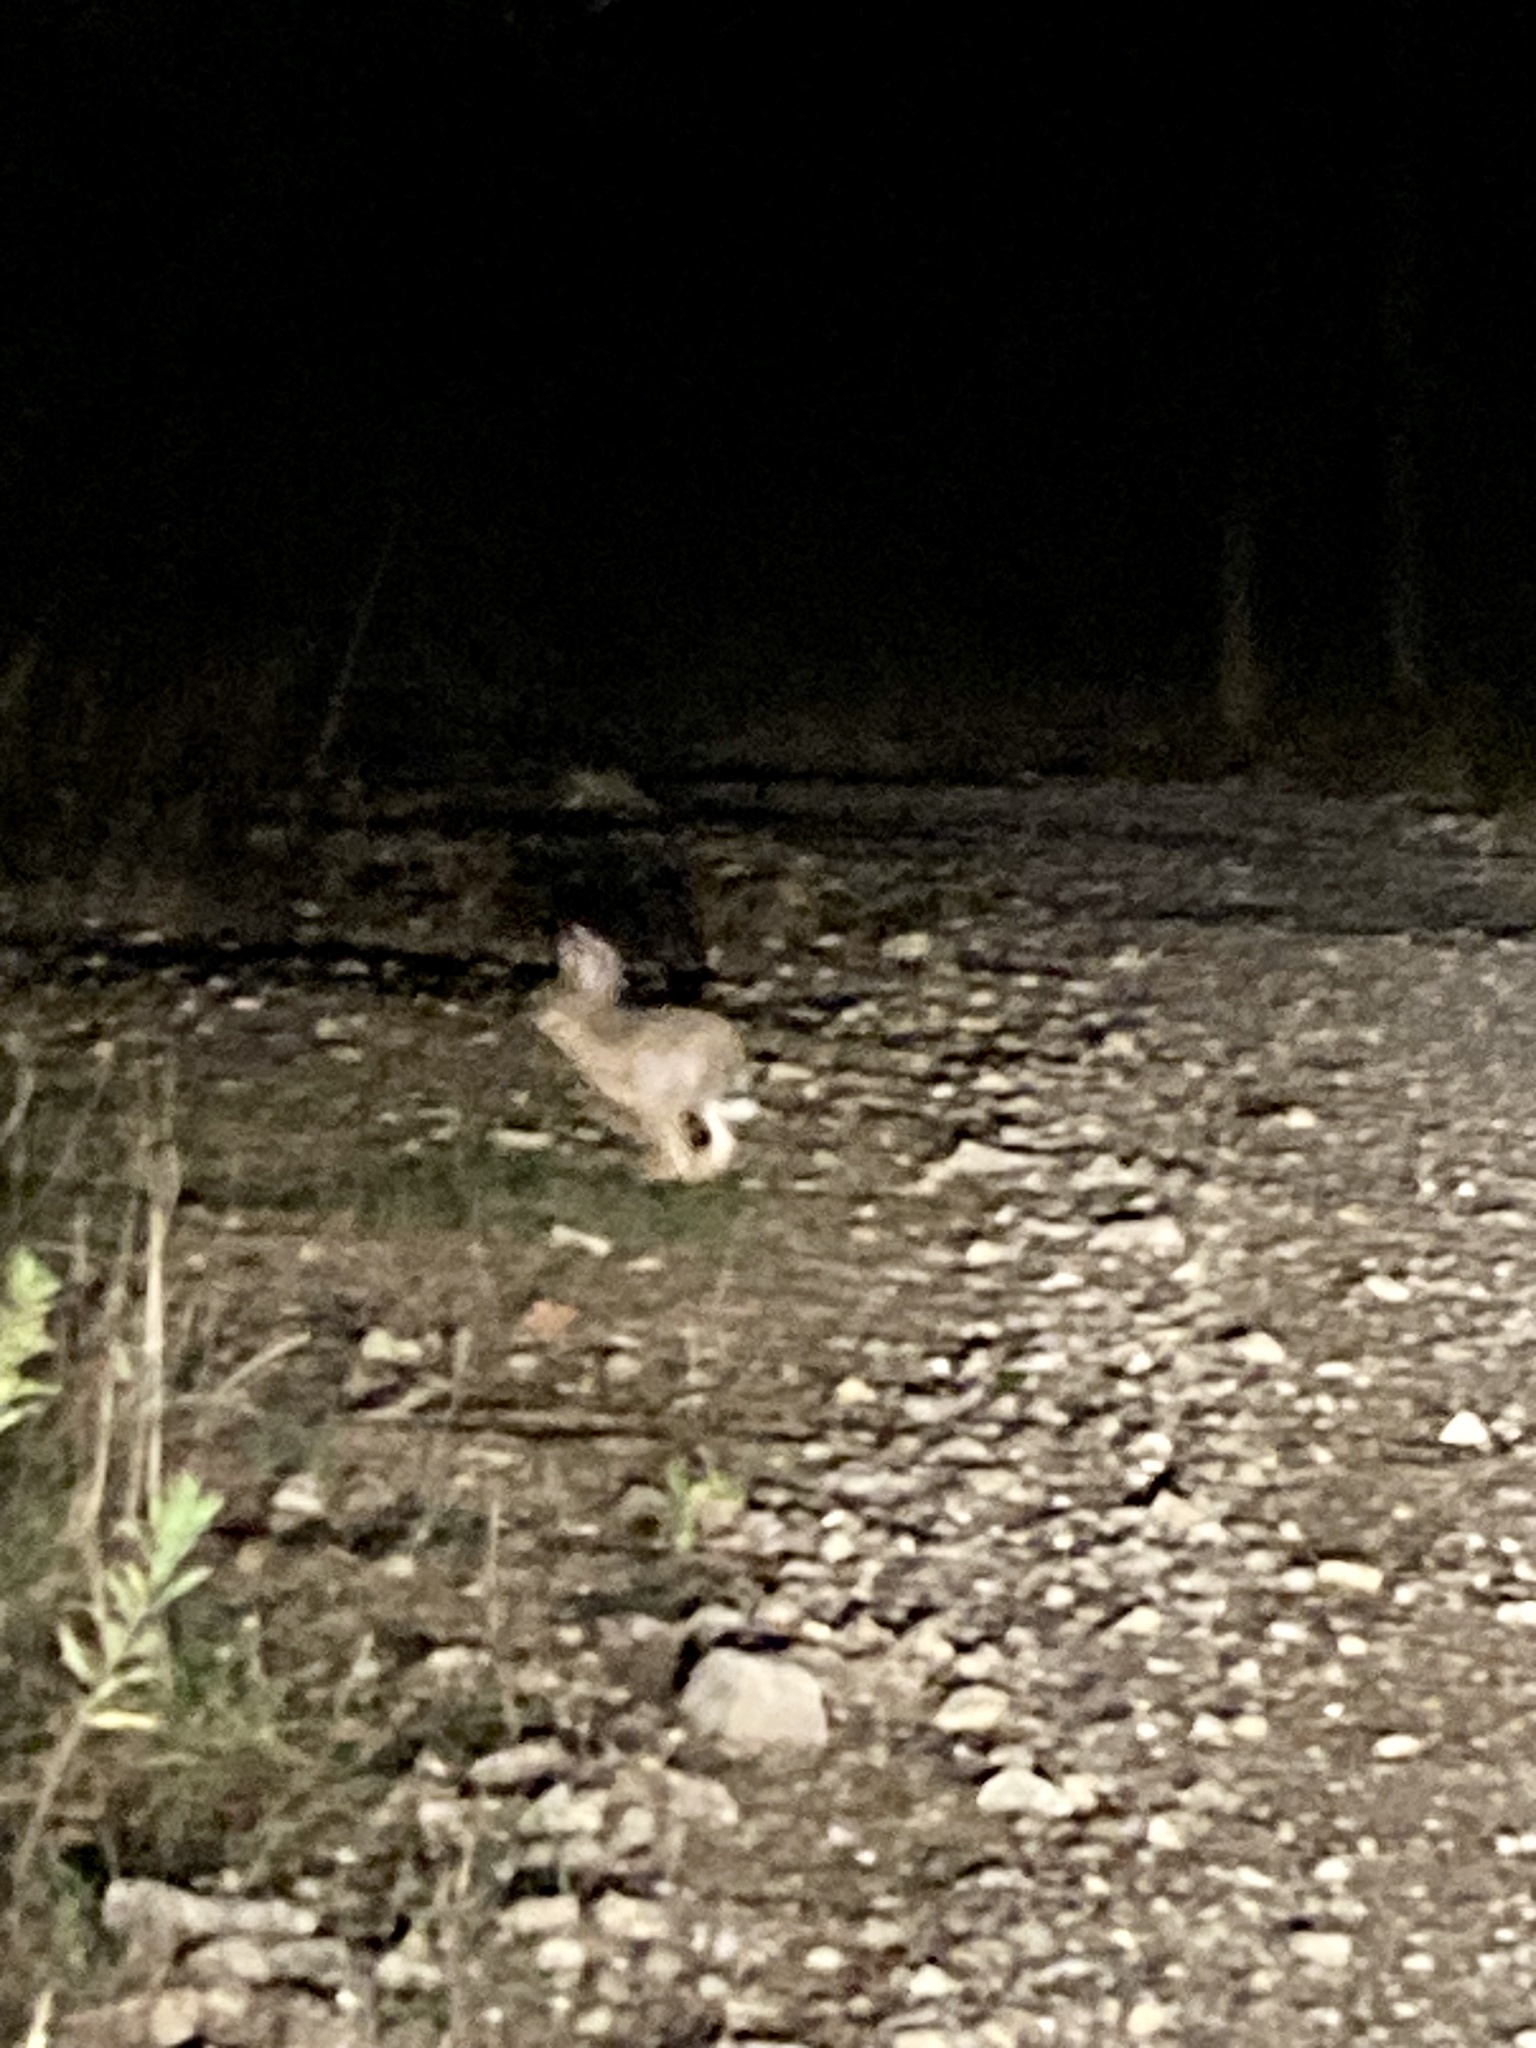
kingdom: Animalia
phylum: Chordata
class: Mammalia
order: Lagomorpha
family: Leporidae
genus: Lepus
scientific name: Lepus europaeus
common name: European hare
